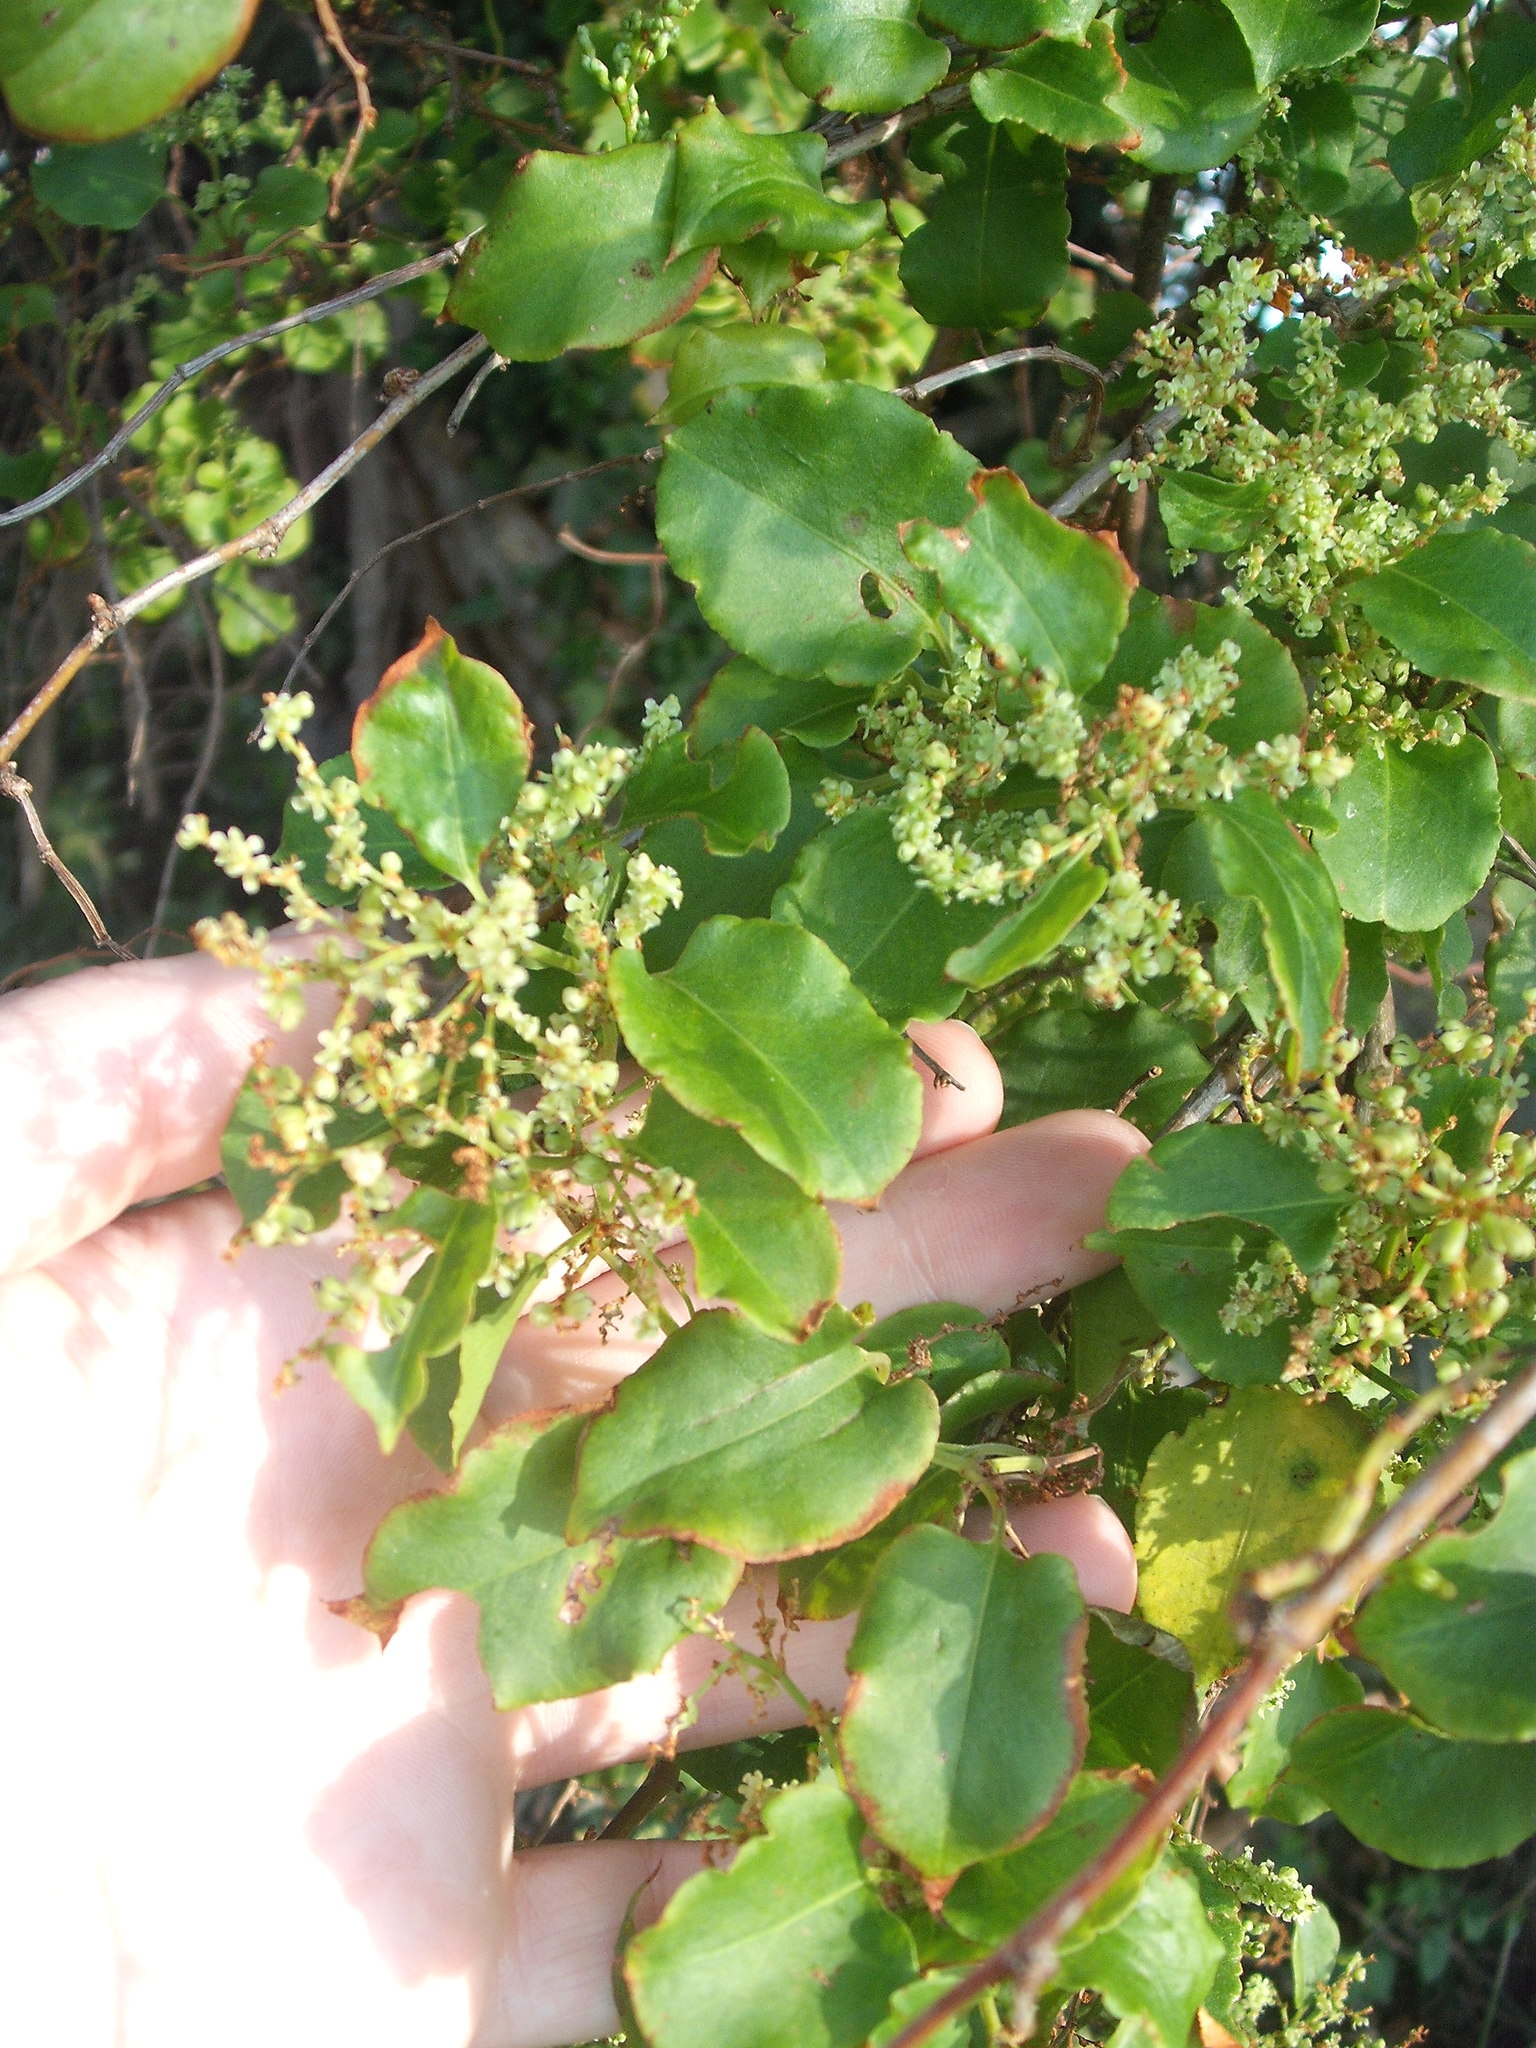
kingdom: Plantae
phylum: Tracheophyta
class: Magnoliopsida
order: Caryophyllales
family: Polygonaceae
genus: Muehlenbeckia
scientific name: Muehlenbeckia australis
